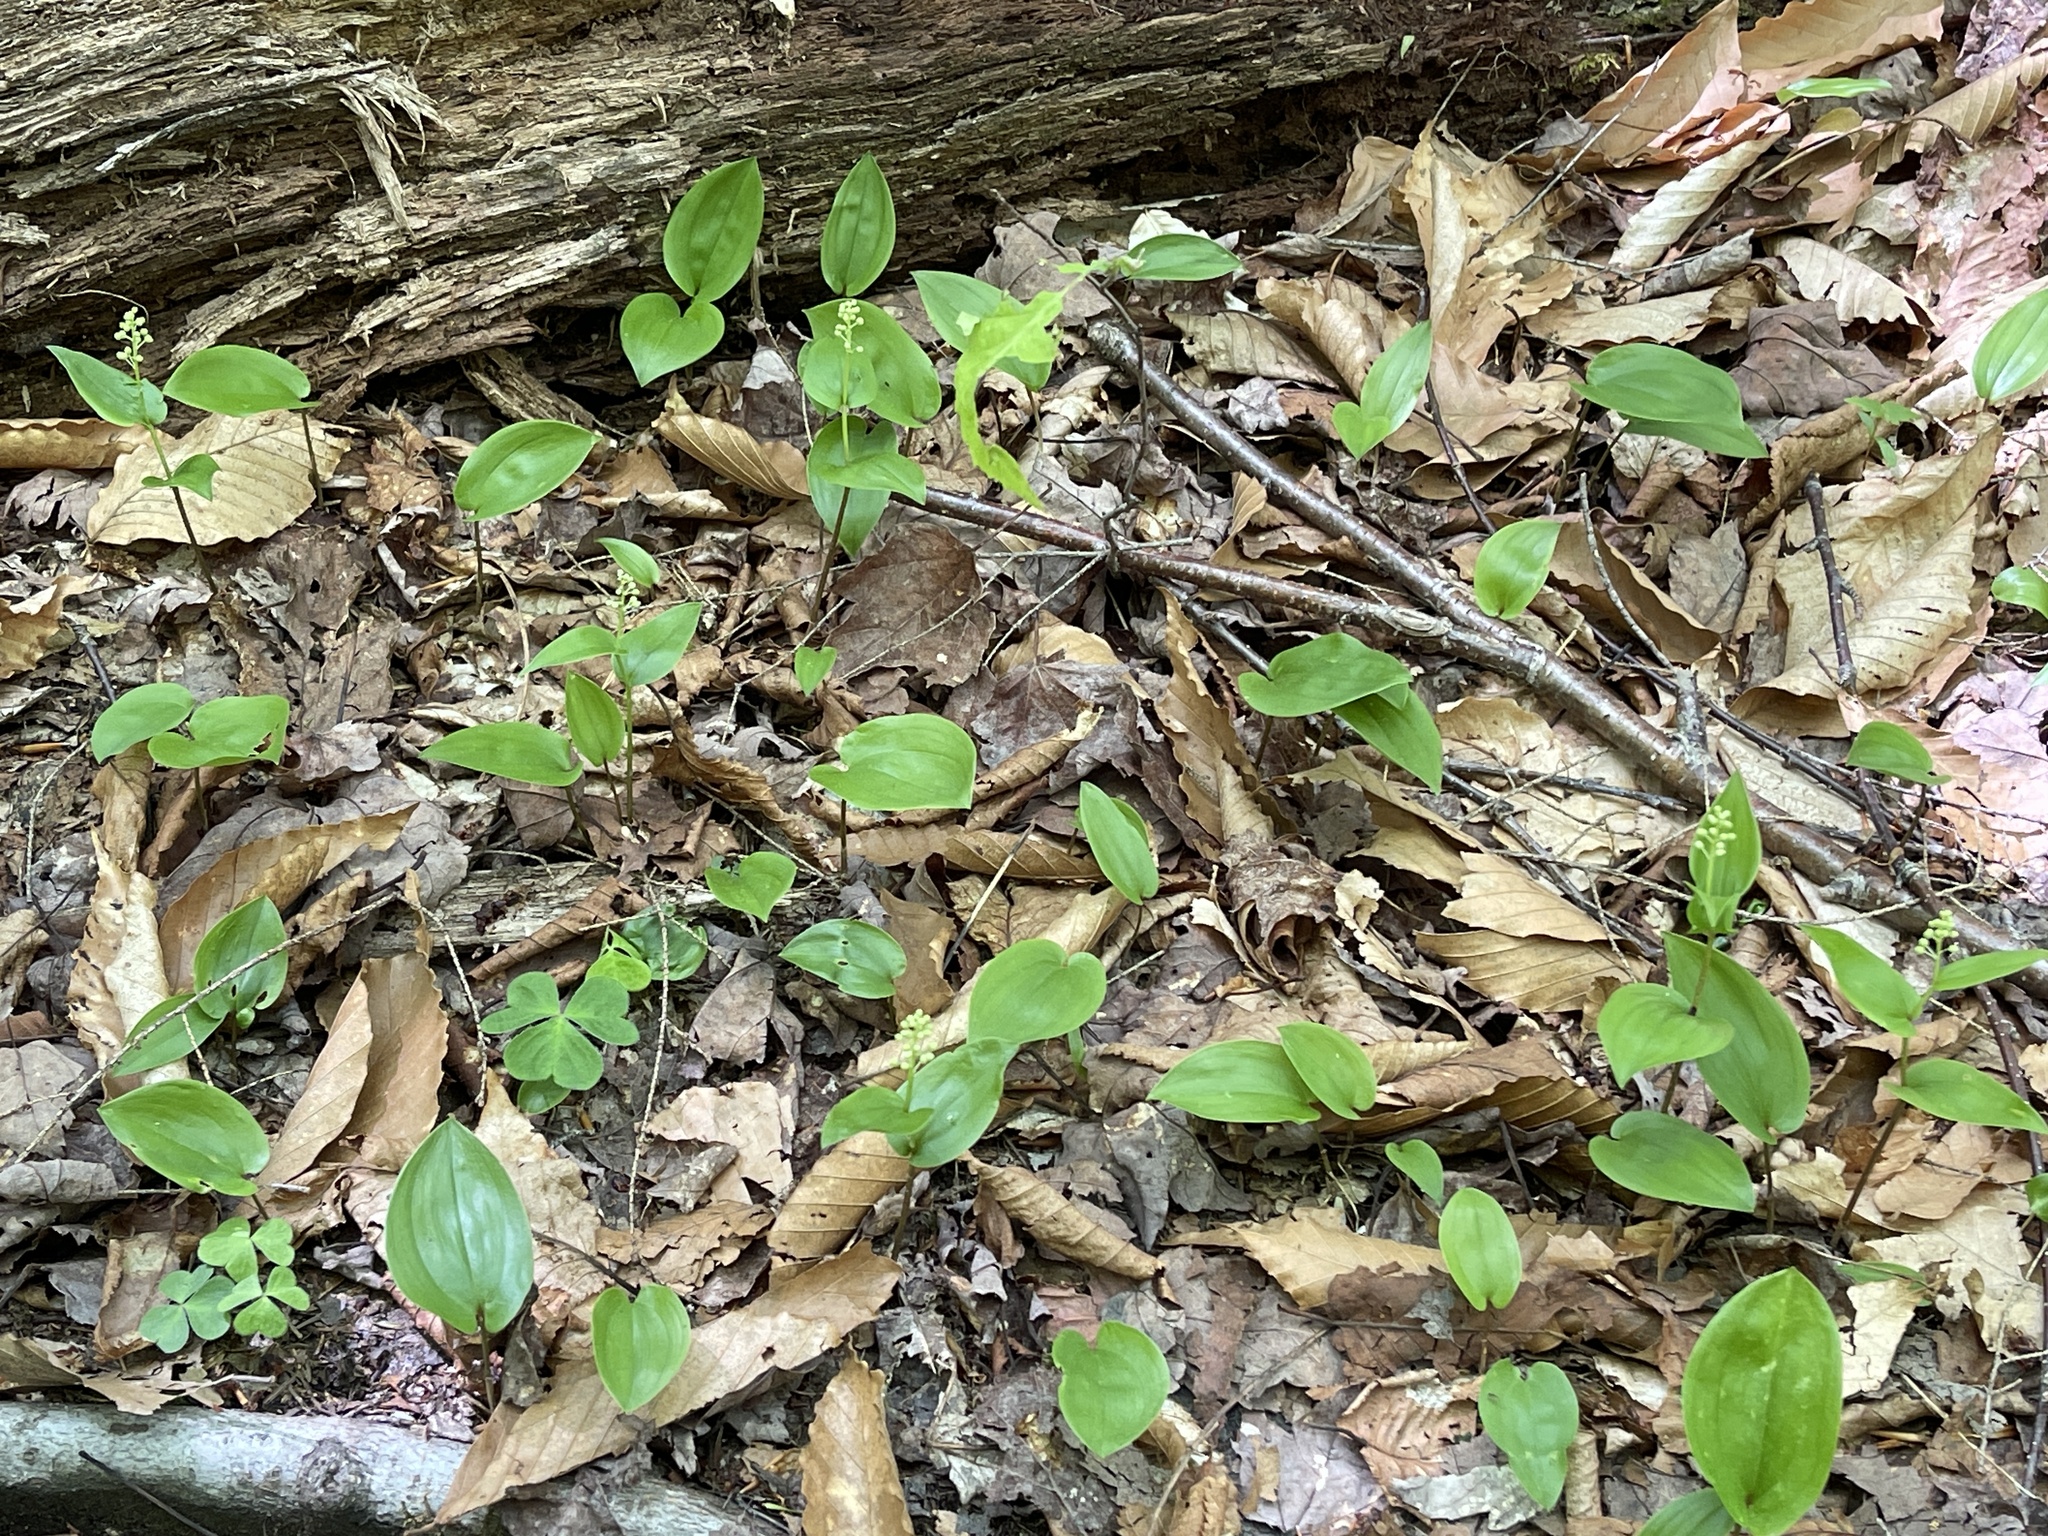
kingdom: Plantae
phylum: Tracheophyta
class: Liliopsida
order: Asparagales
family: Asparagaceae
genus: Maianthemum
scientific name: Maianthemum canadense
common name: False lily-of-the-valley
